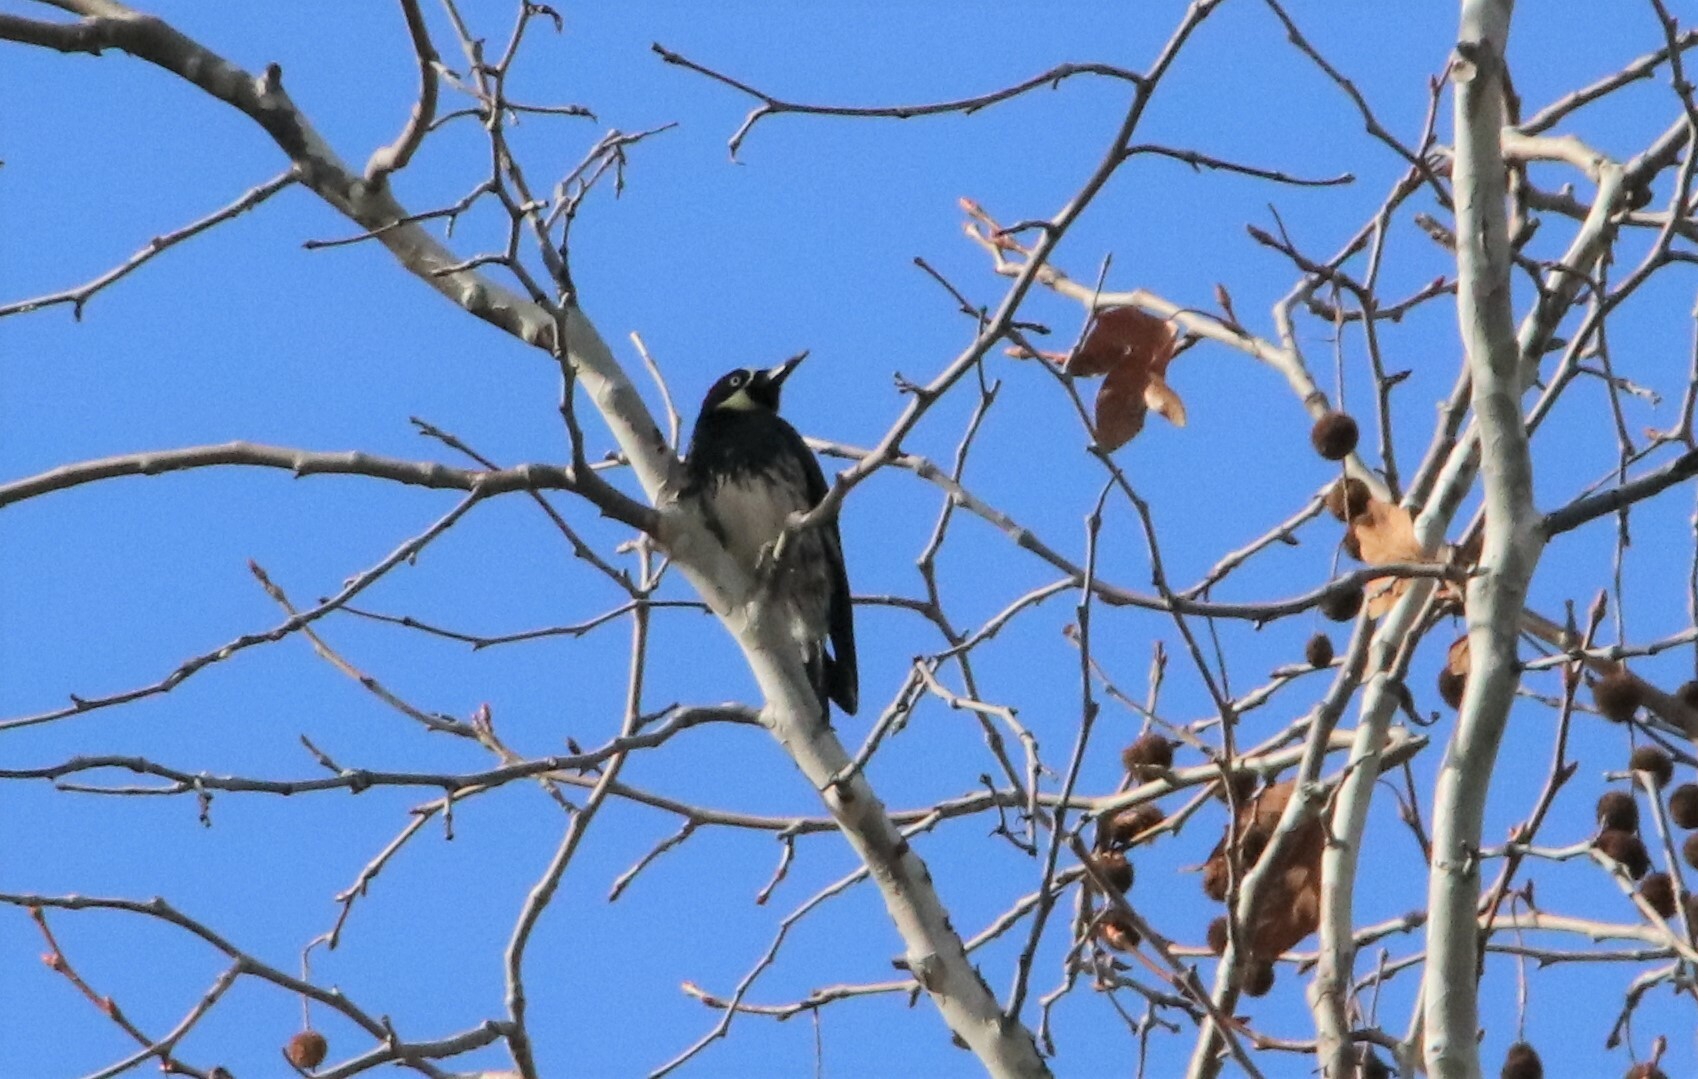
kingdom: Animalia
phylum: Chordata
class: Aves
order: Piciformes
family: Picidae
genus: Melanerpes
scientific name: Melanerpes formicivorus
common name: Acorn woodpecker
